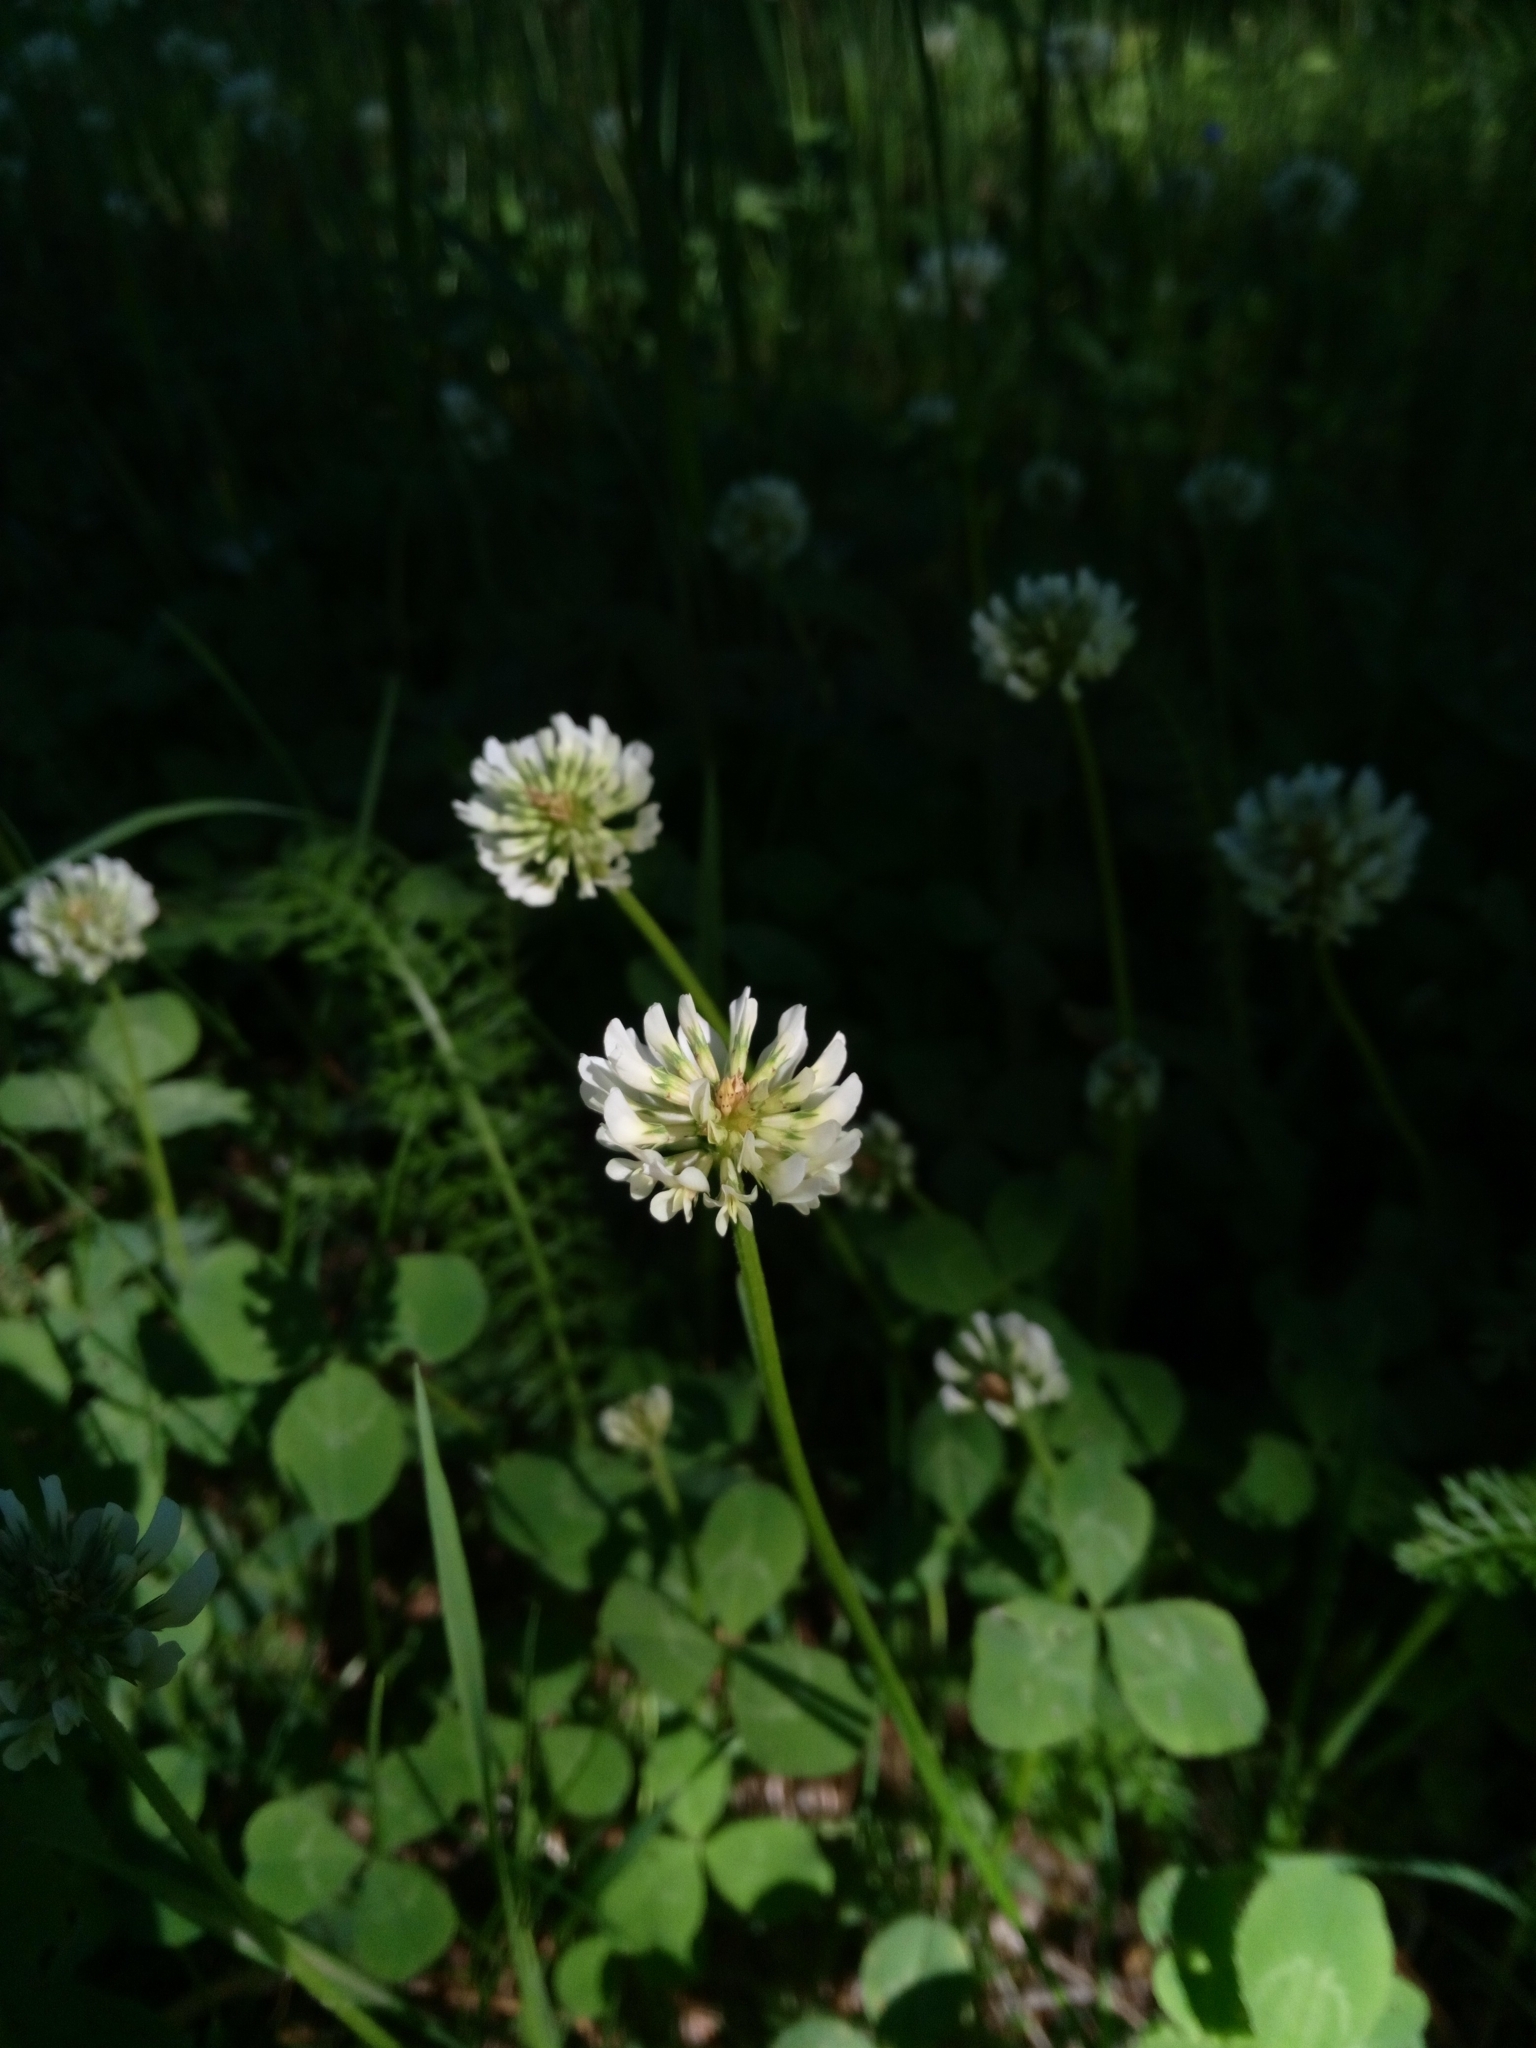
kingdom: Plantae
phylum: Tracheophyta
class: Magnoliopsida
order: Fabales
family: Fabaceae
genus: Trifolium
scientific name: Trifolium repens
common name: White clover
